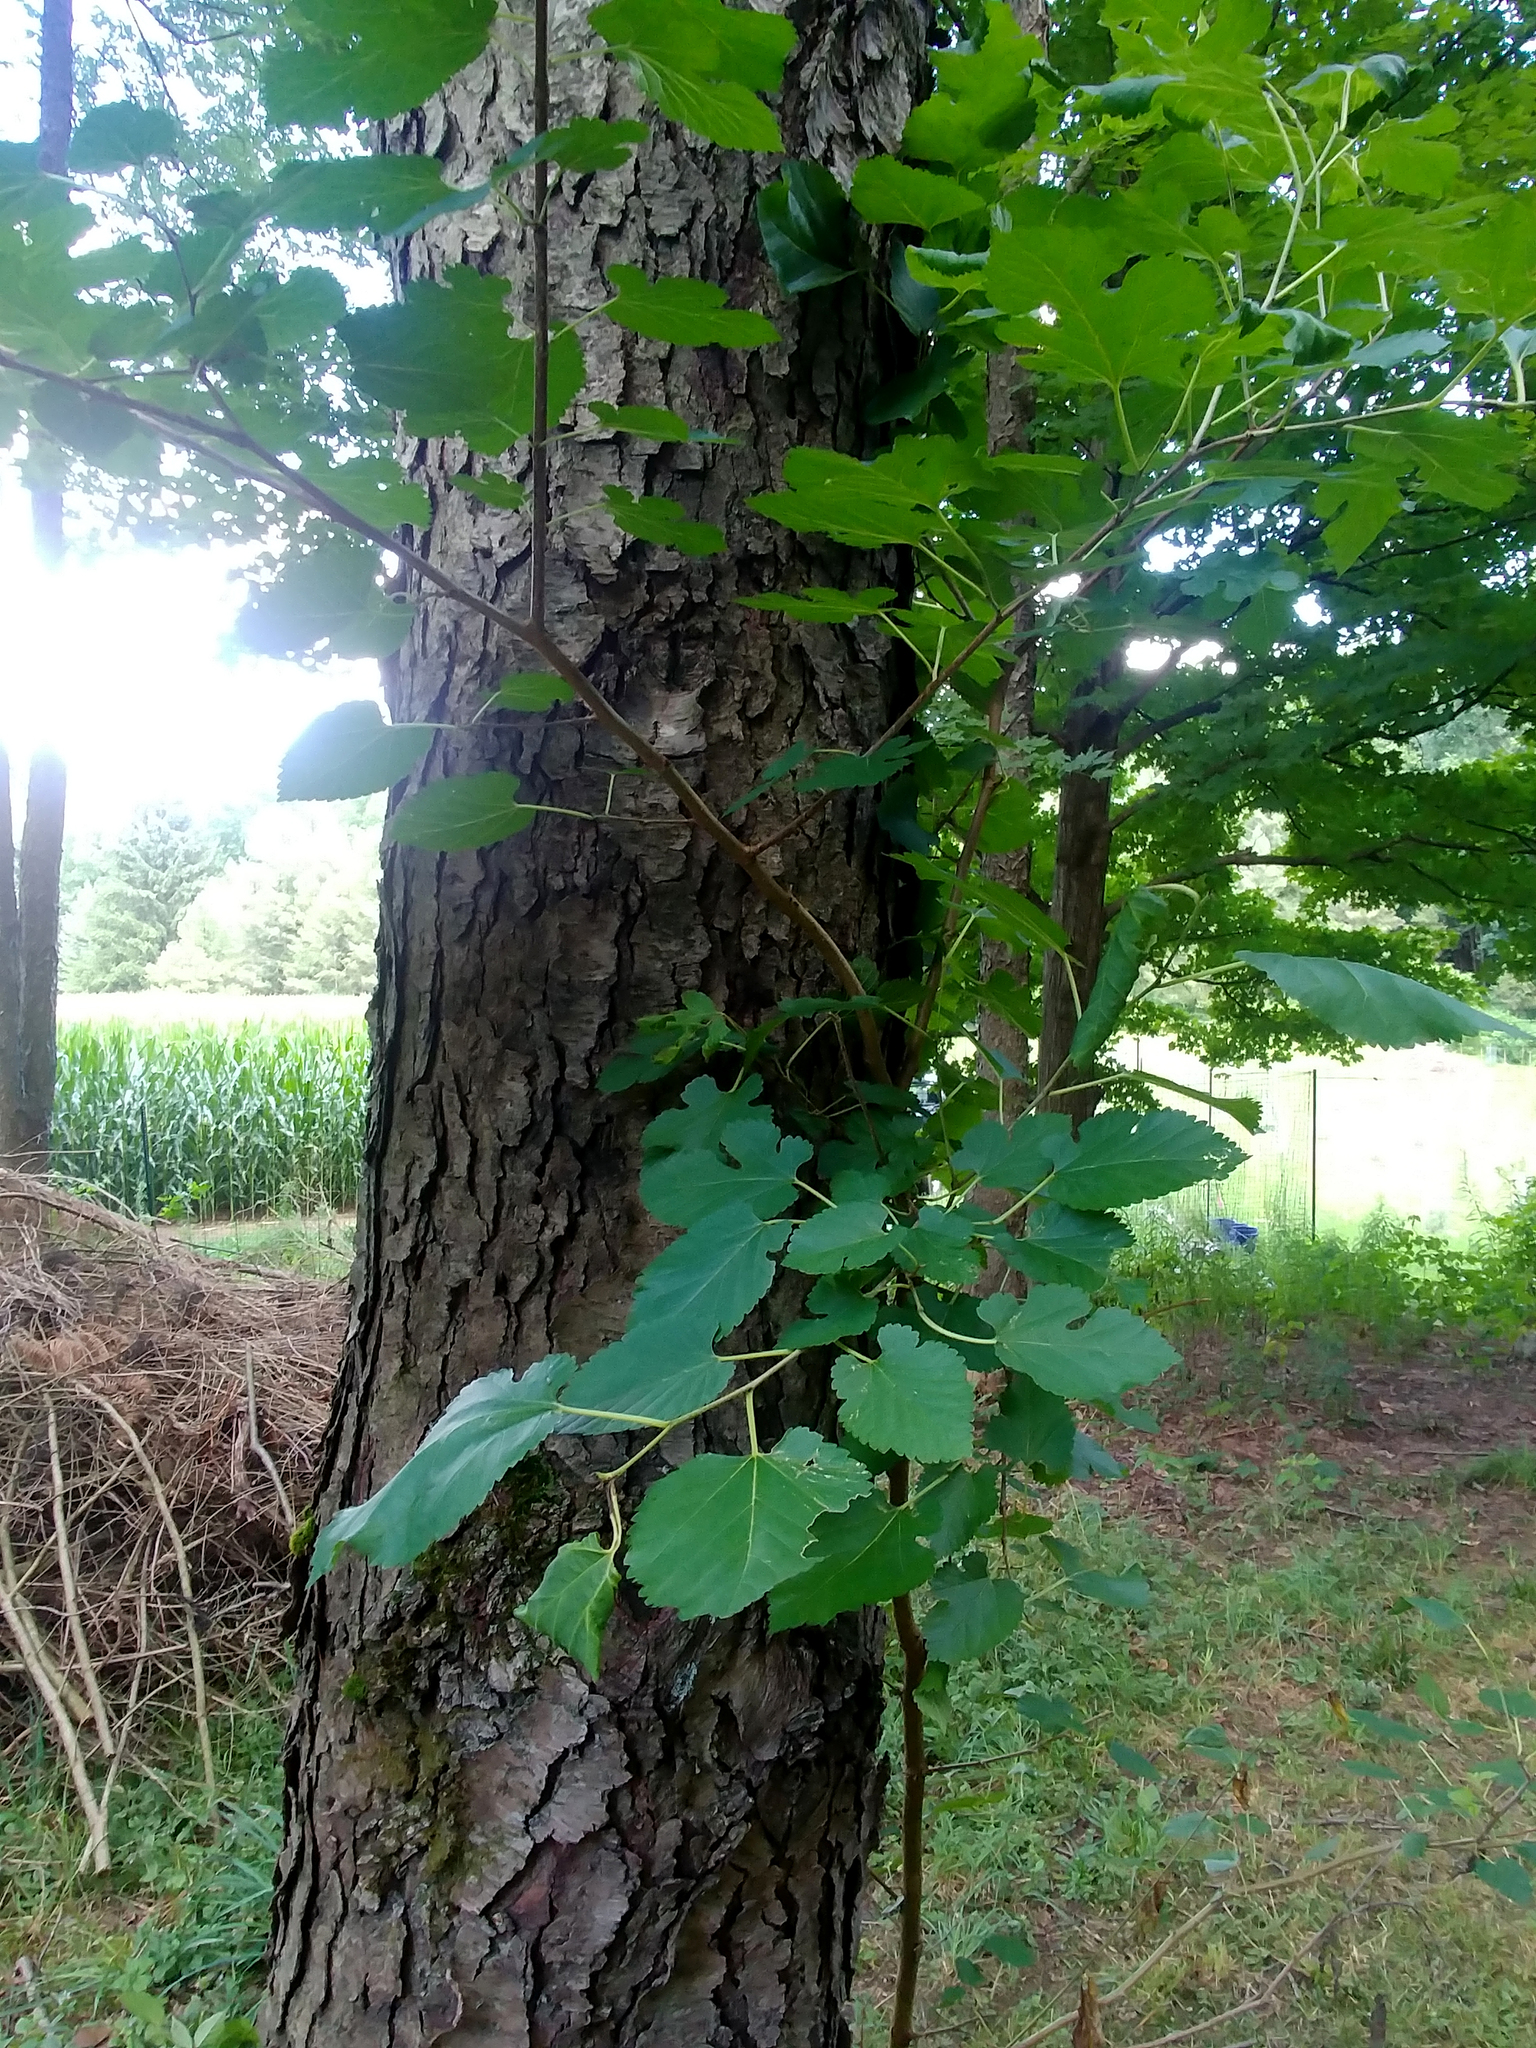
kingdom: Plantae
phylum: Tracheophyta
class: Magnoliopsida
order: Rosales
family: Moraceae
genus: Morus
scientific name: Morus alba
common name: White mulberry
